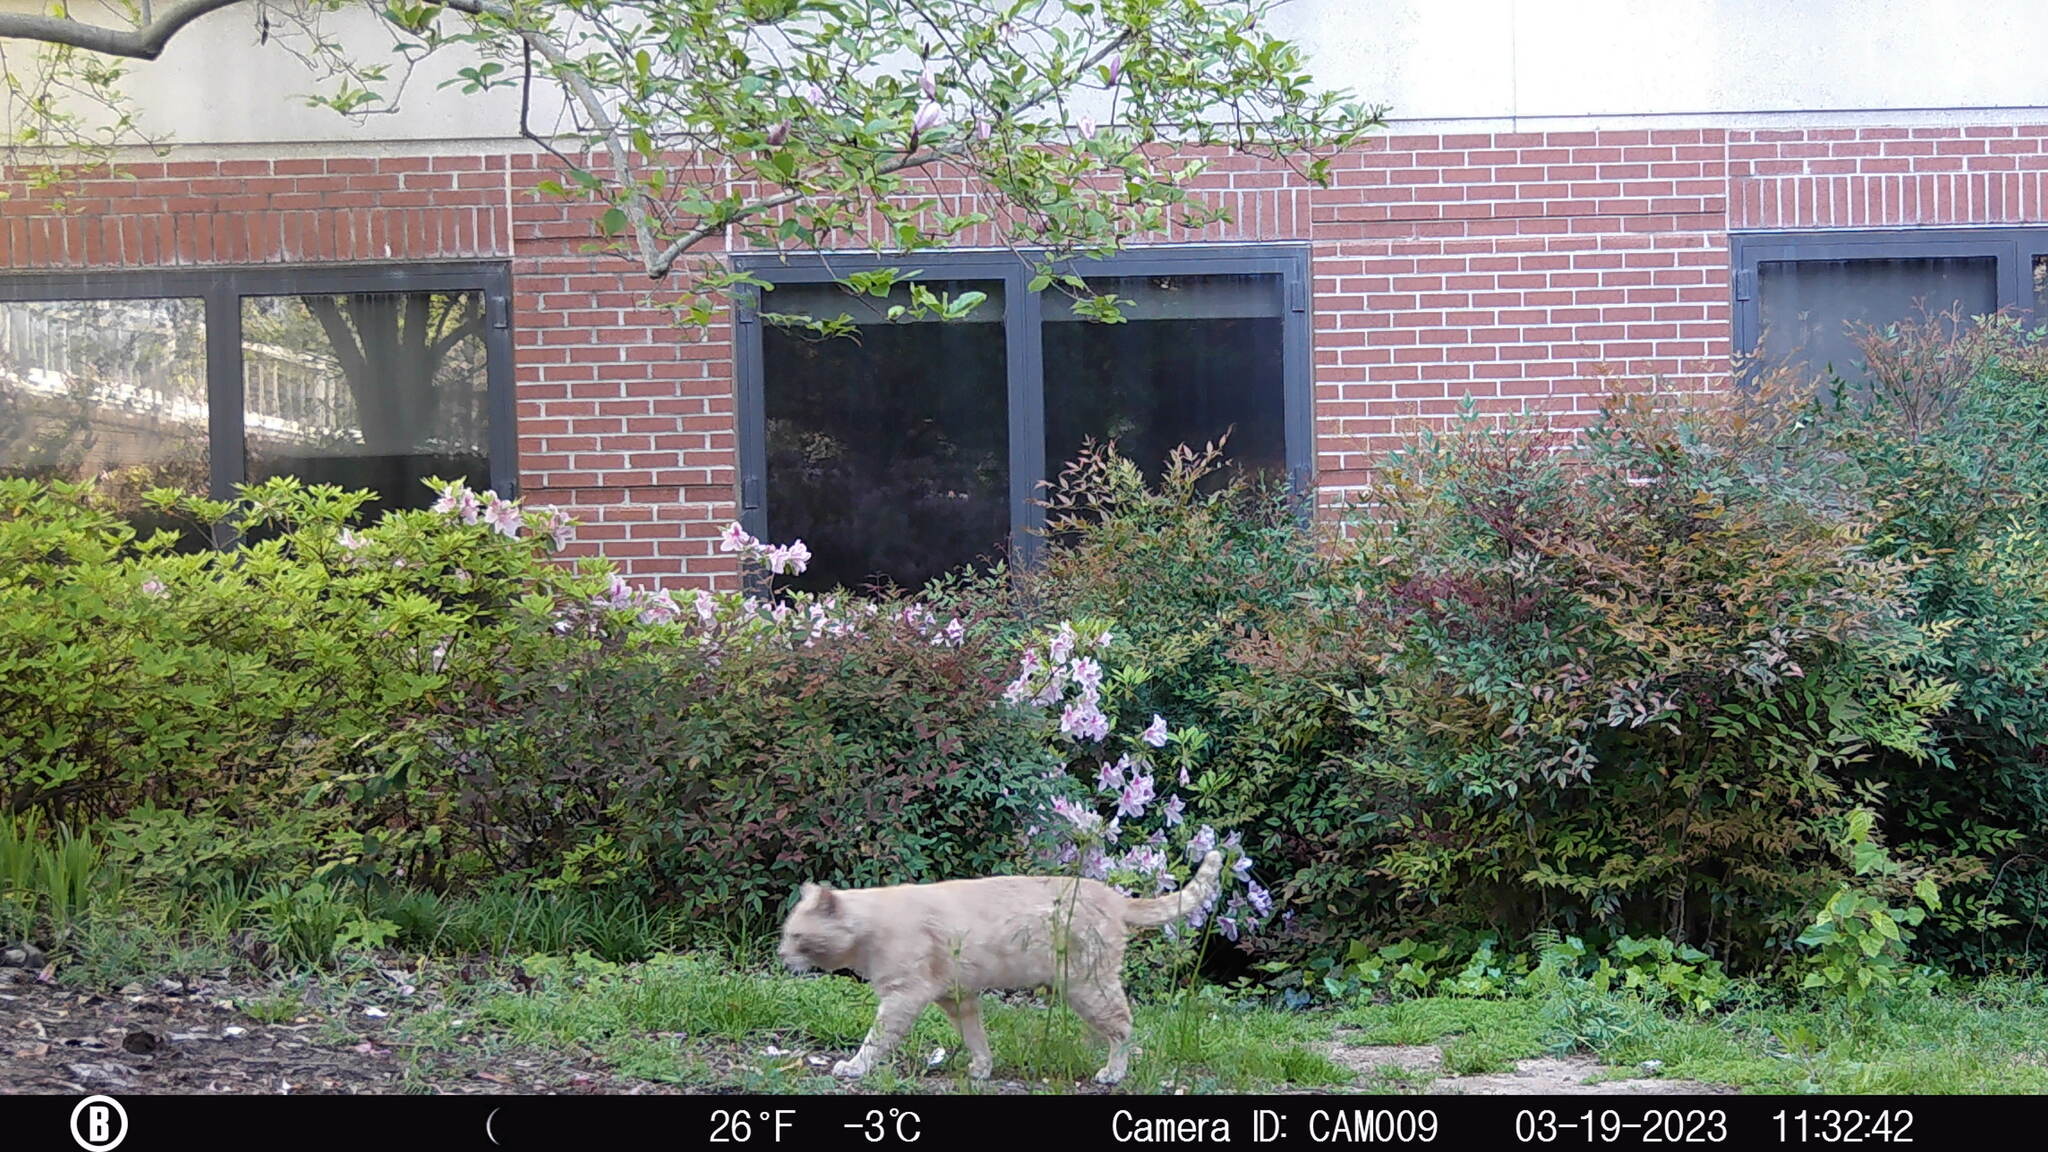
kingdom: Animalia
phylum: Chordata
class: Mammalia
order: Carnivora
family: Felidae
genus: Felis
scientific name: Felis catus
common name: Domestic cat
